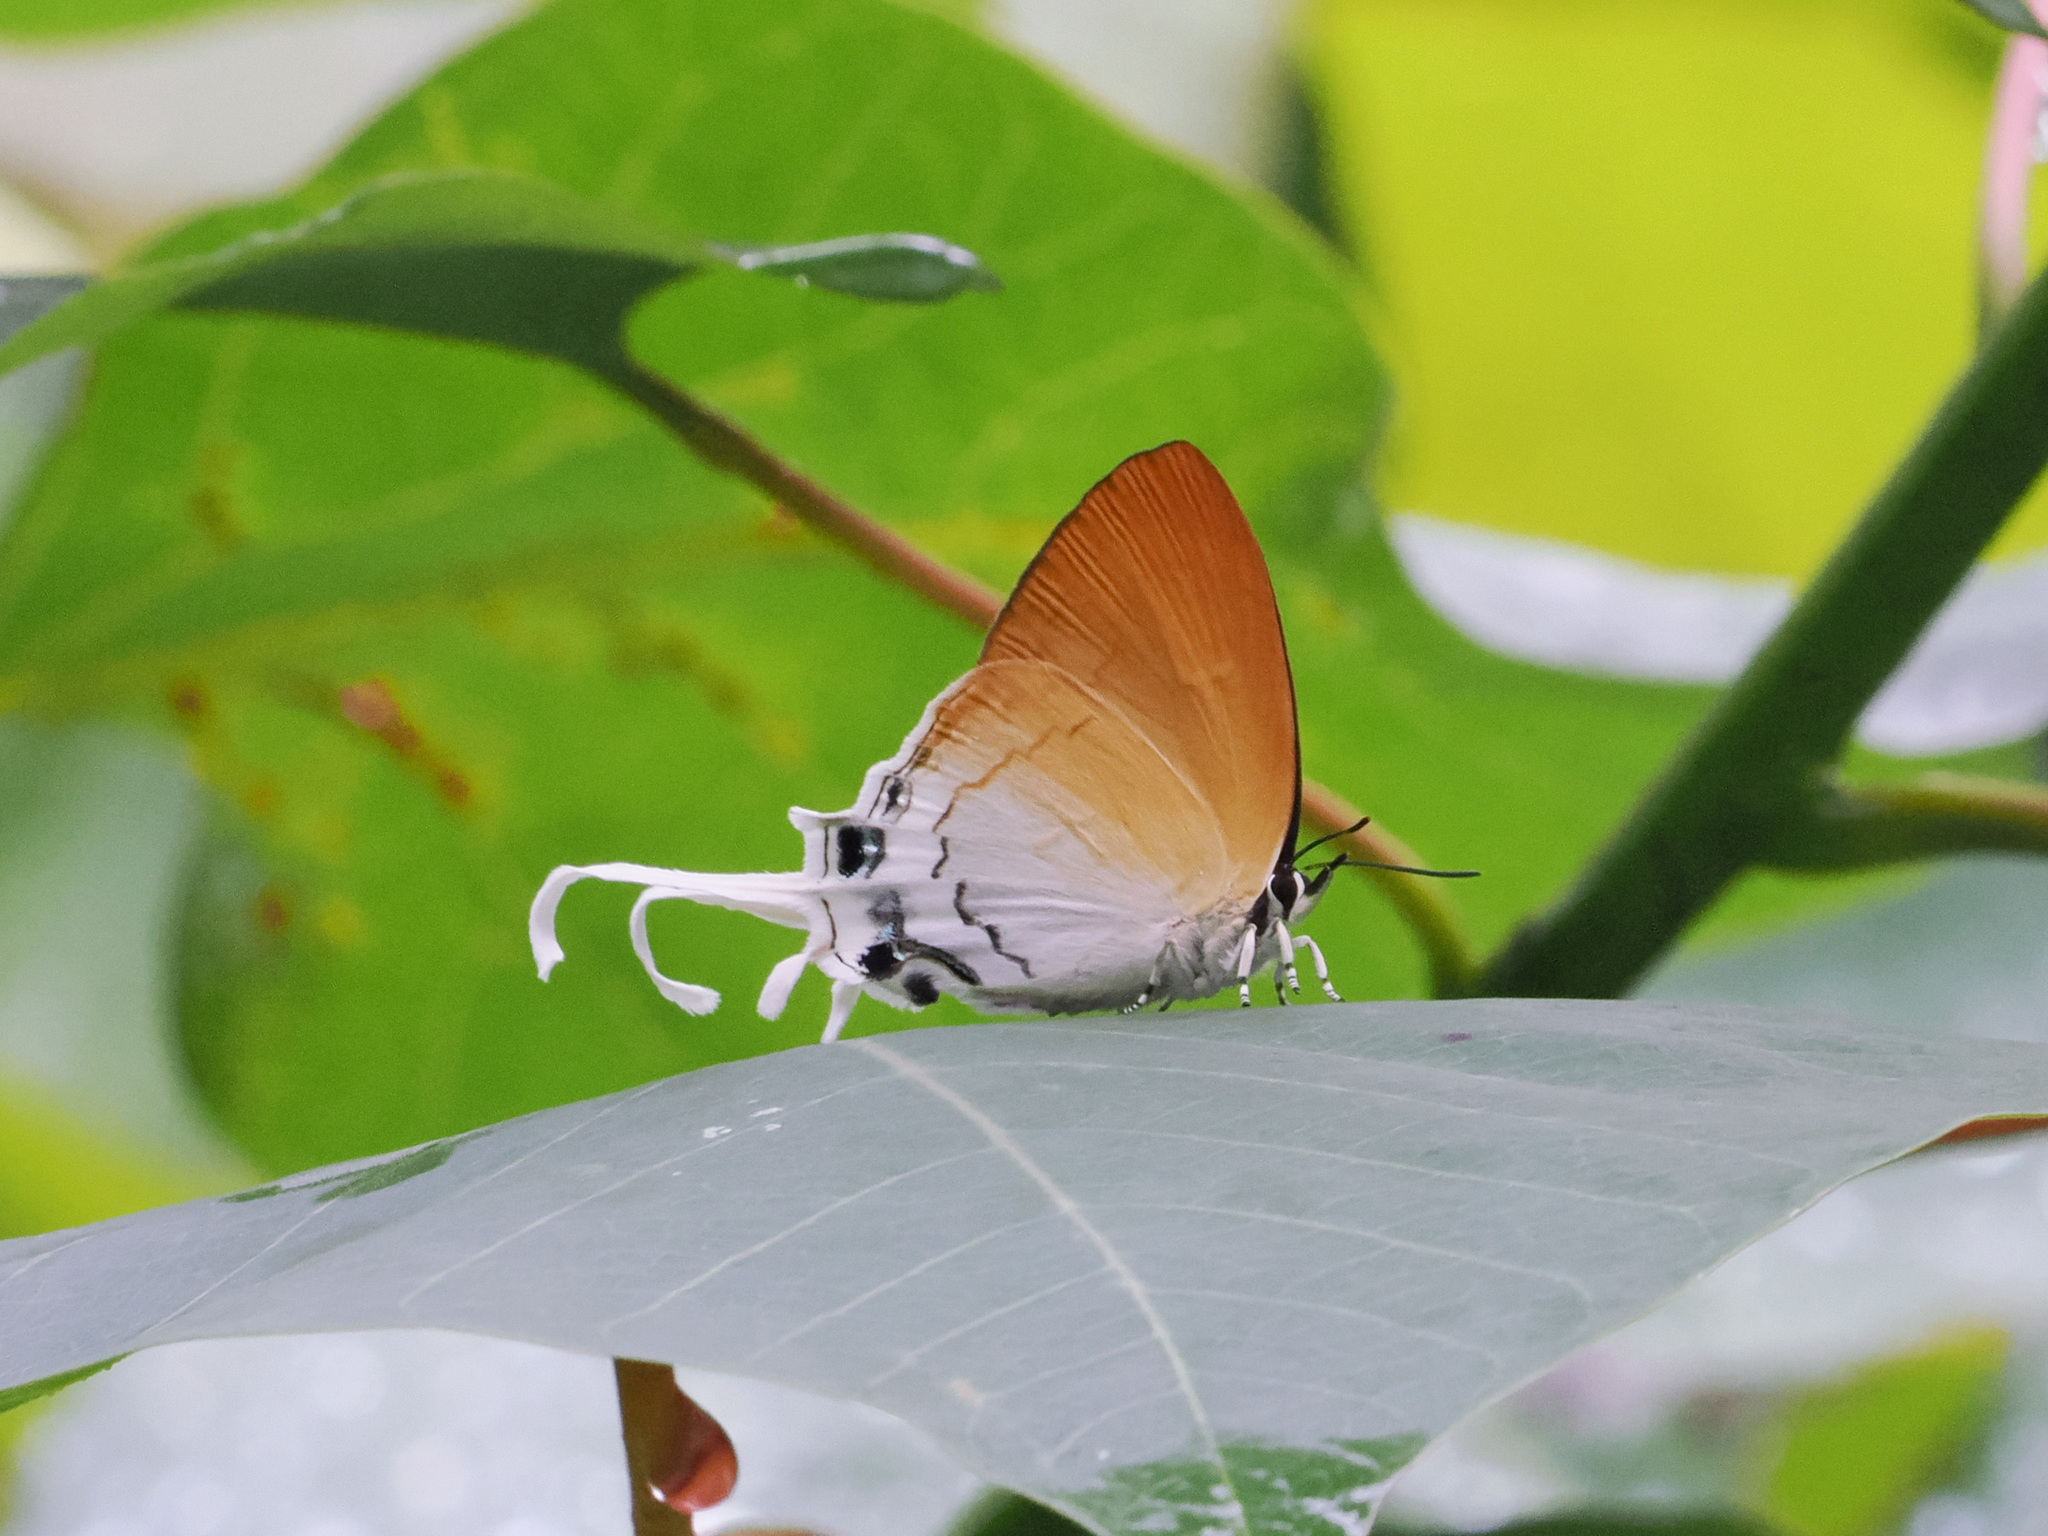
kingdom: Animalia
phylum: Arthropoda
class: Insecta
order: Lepidoptera
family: Lycaenidae
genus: Ticherra
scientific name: Ticherra acte
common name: Blue imperial
